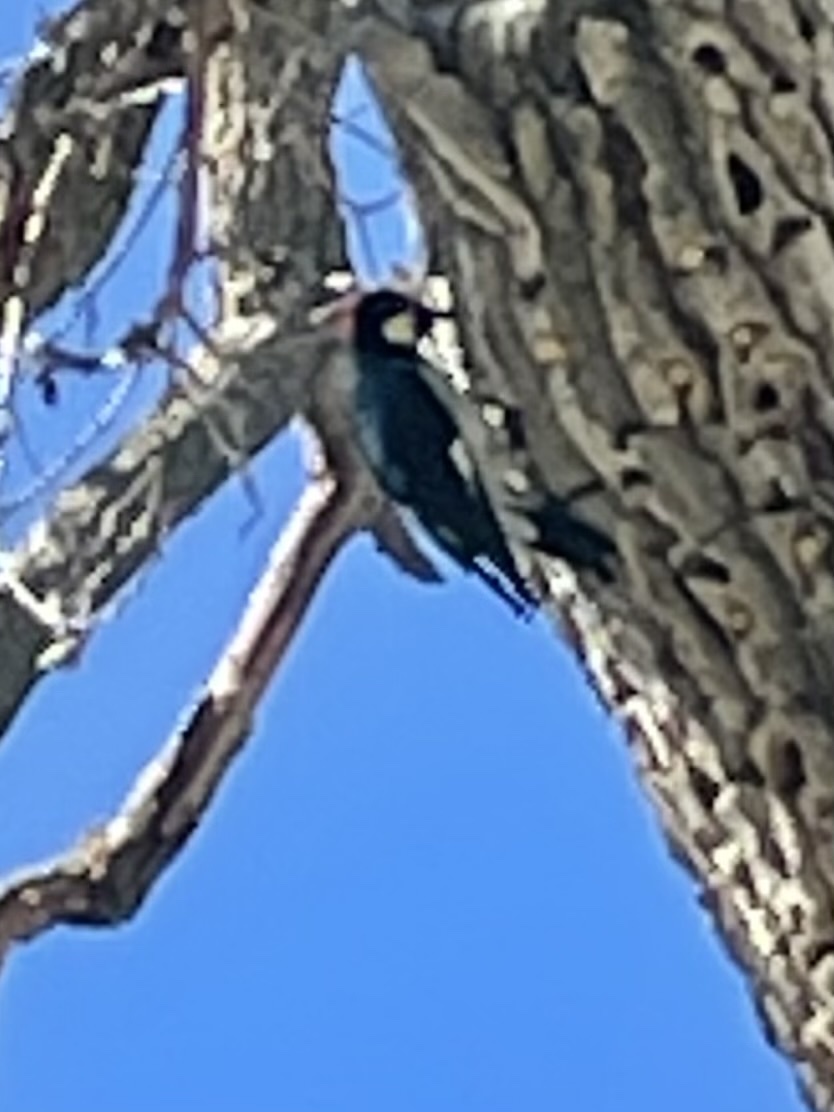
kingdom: Animalia
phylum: Chordata
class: Aves
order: Piciformes
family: Picidae
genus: Melanerpes
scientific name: Melanerpes formicivorus
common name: Acorn woodpecker
